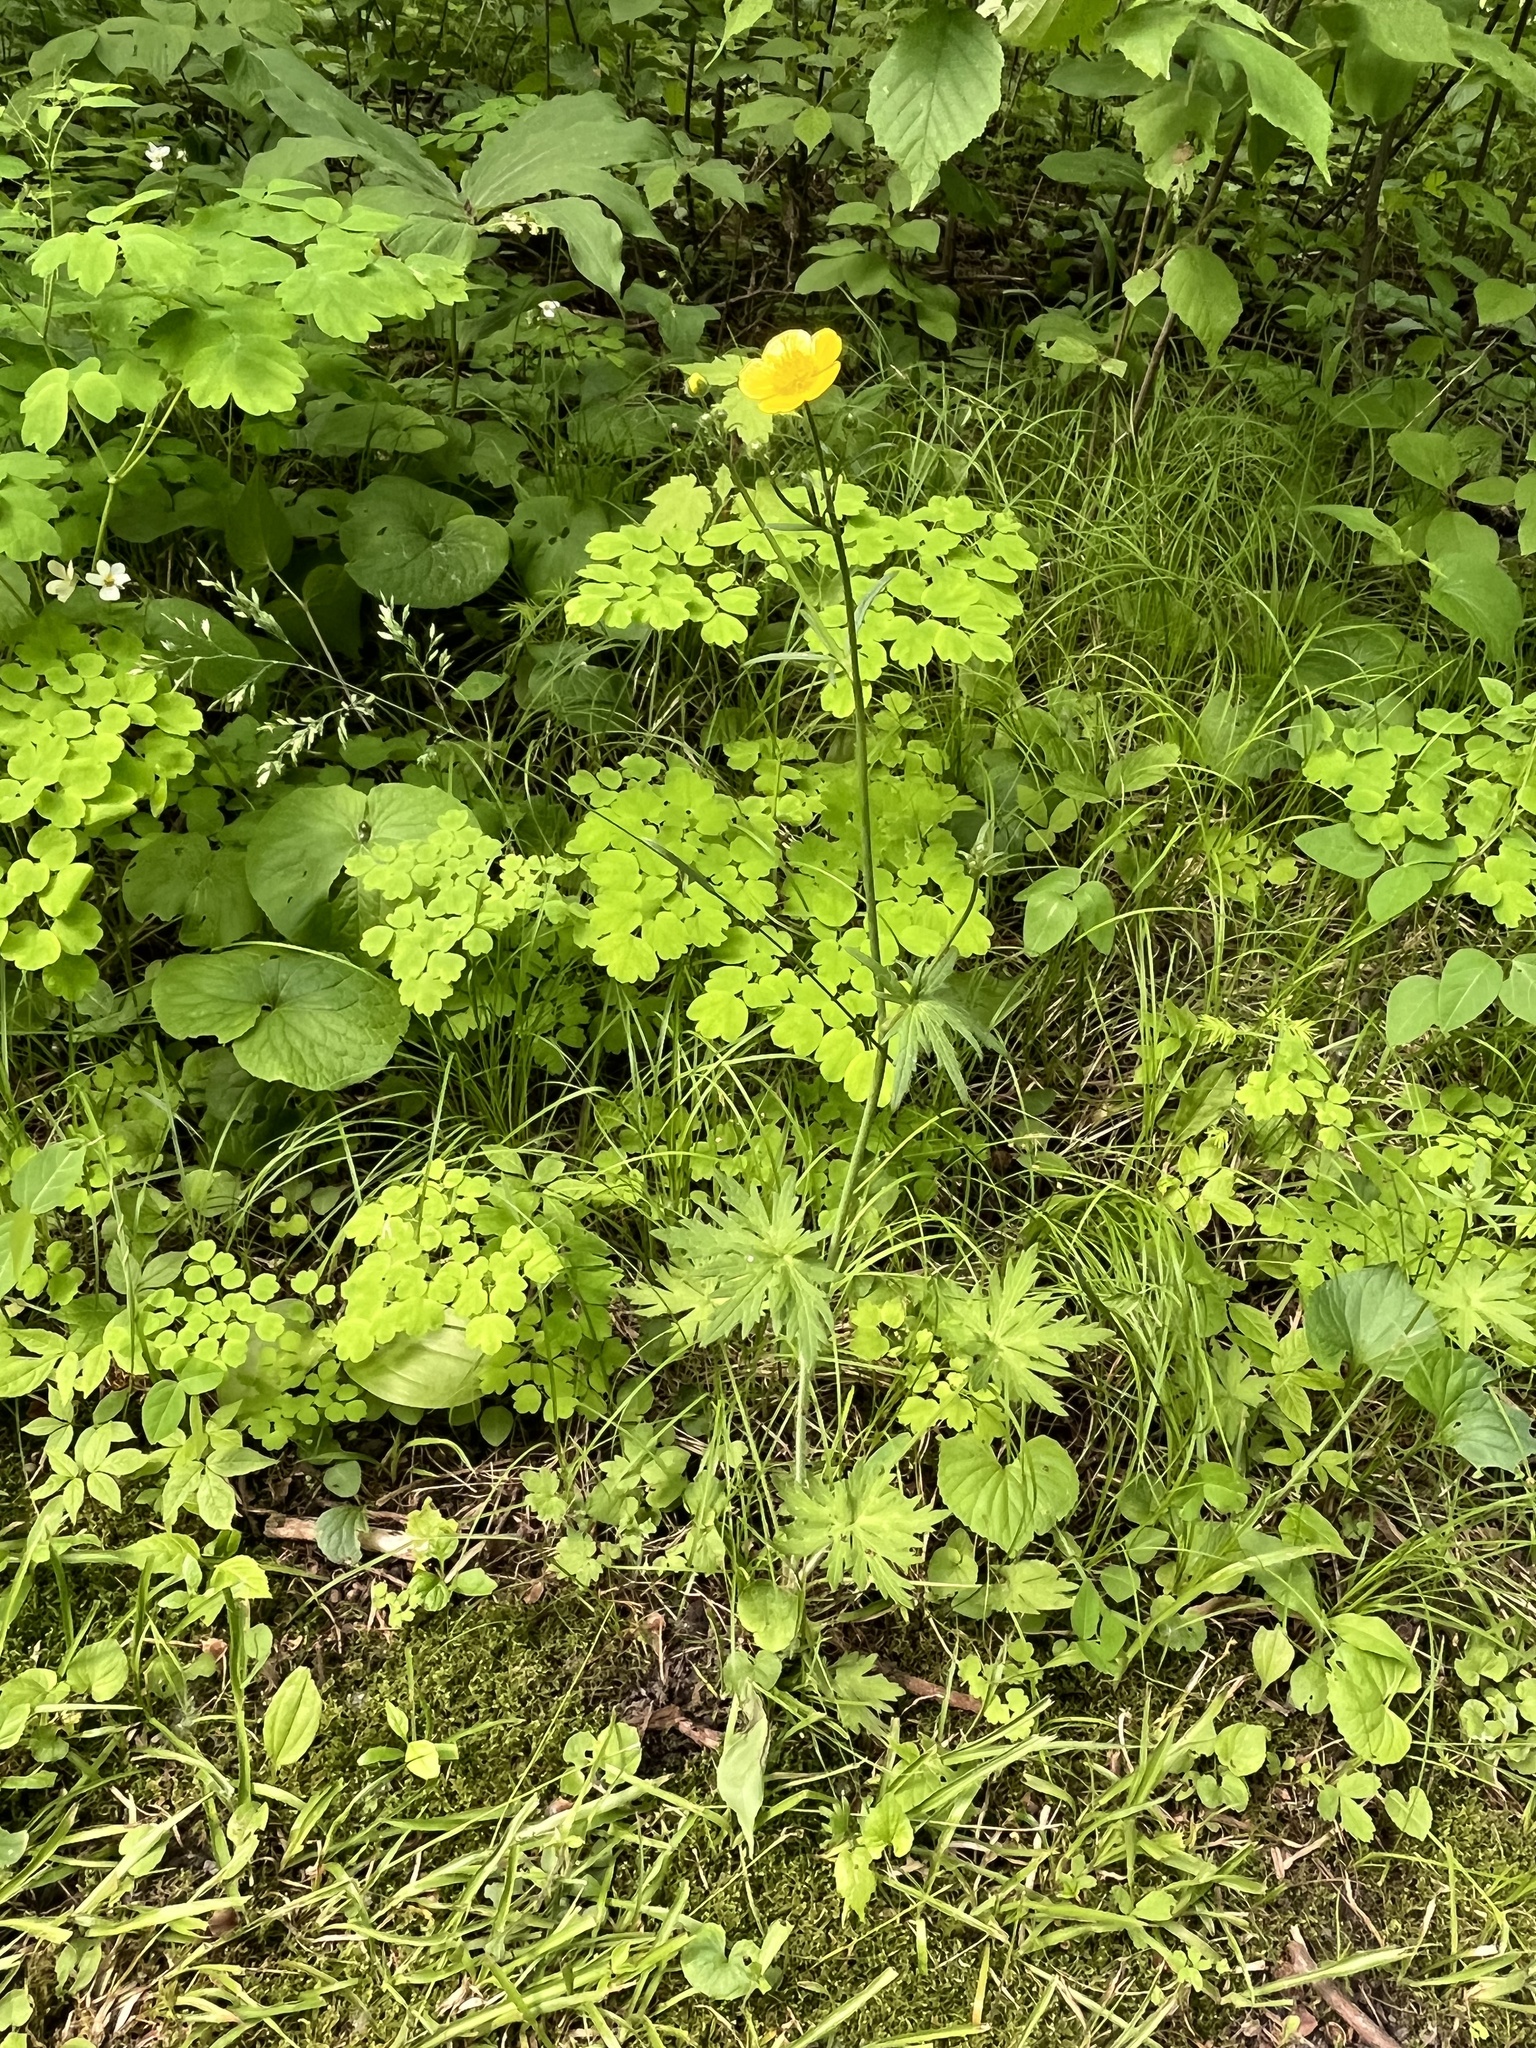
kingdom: Plantae
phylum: Tracheophyta
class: Magnoliopsida
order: Ranunculales
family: Ranunculaceae
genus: Ranunculus
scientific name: Ranunculus acris
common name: Meadow buttercup
